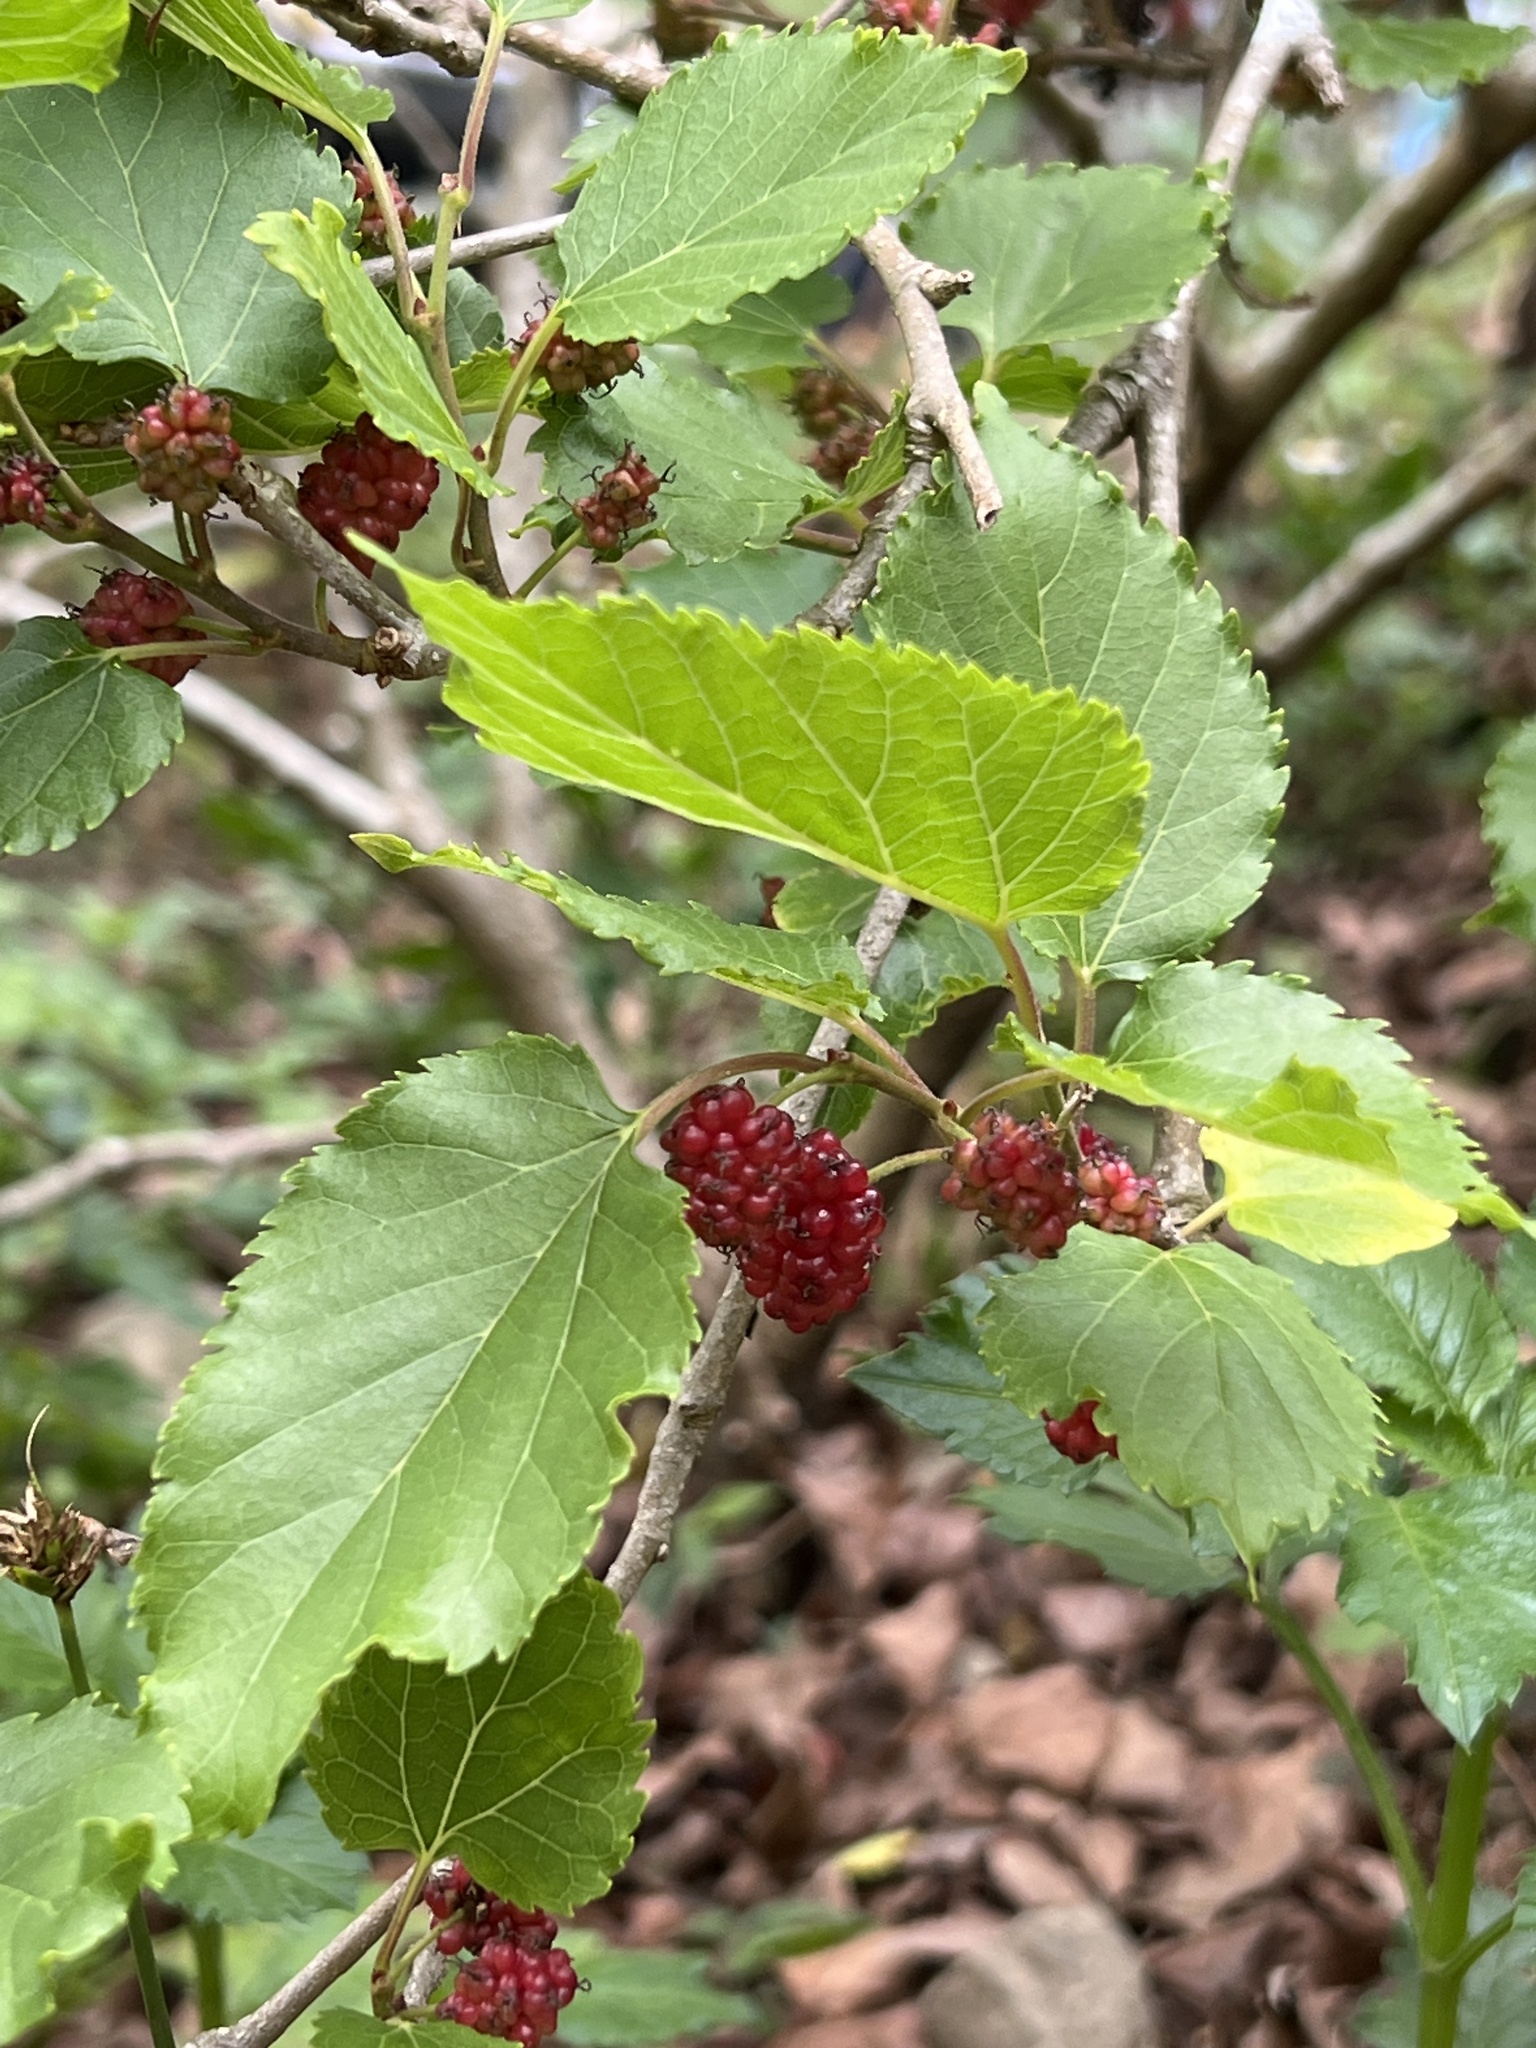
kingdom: Plantae
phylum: Tracheophyta
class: Magnoliopsida
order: Rosales
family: Moraceae
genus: Morus
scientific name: Morus indica
